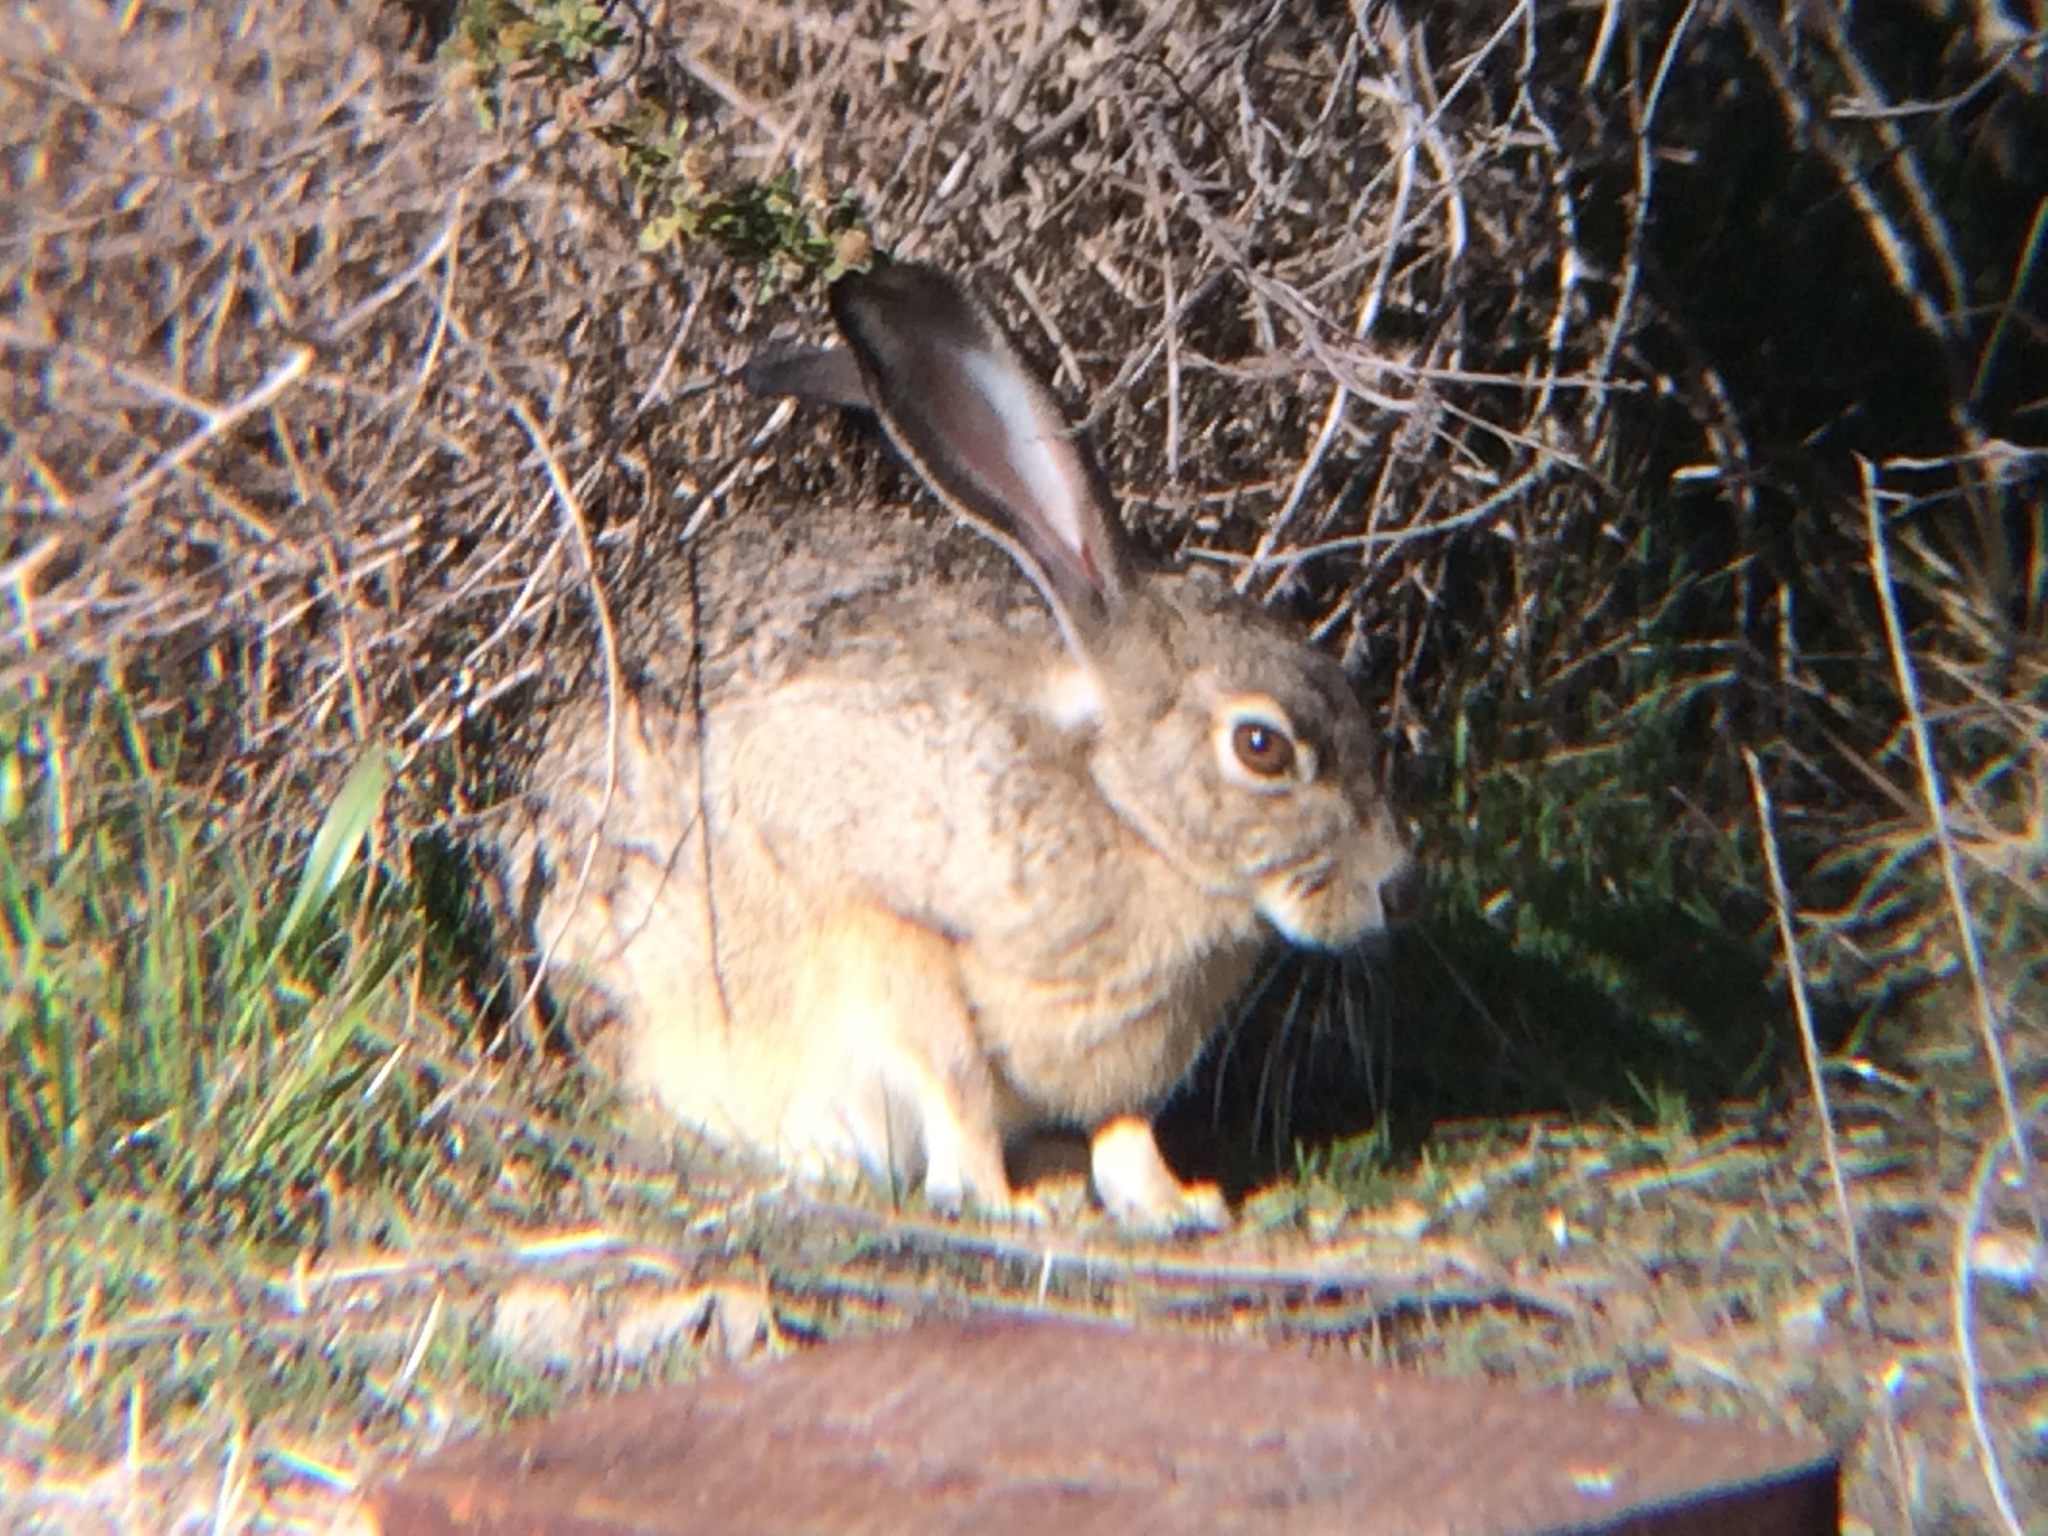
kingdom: Animalia
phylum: Chordata
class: Mammalia
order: Lagomorpha
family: Leporidae
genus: Lepus
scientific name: Lepus californicus
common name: Black-tailed jackrabbit
